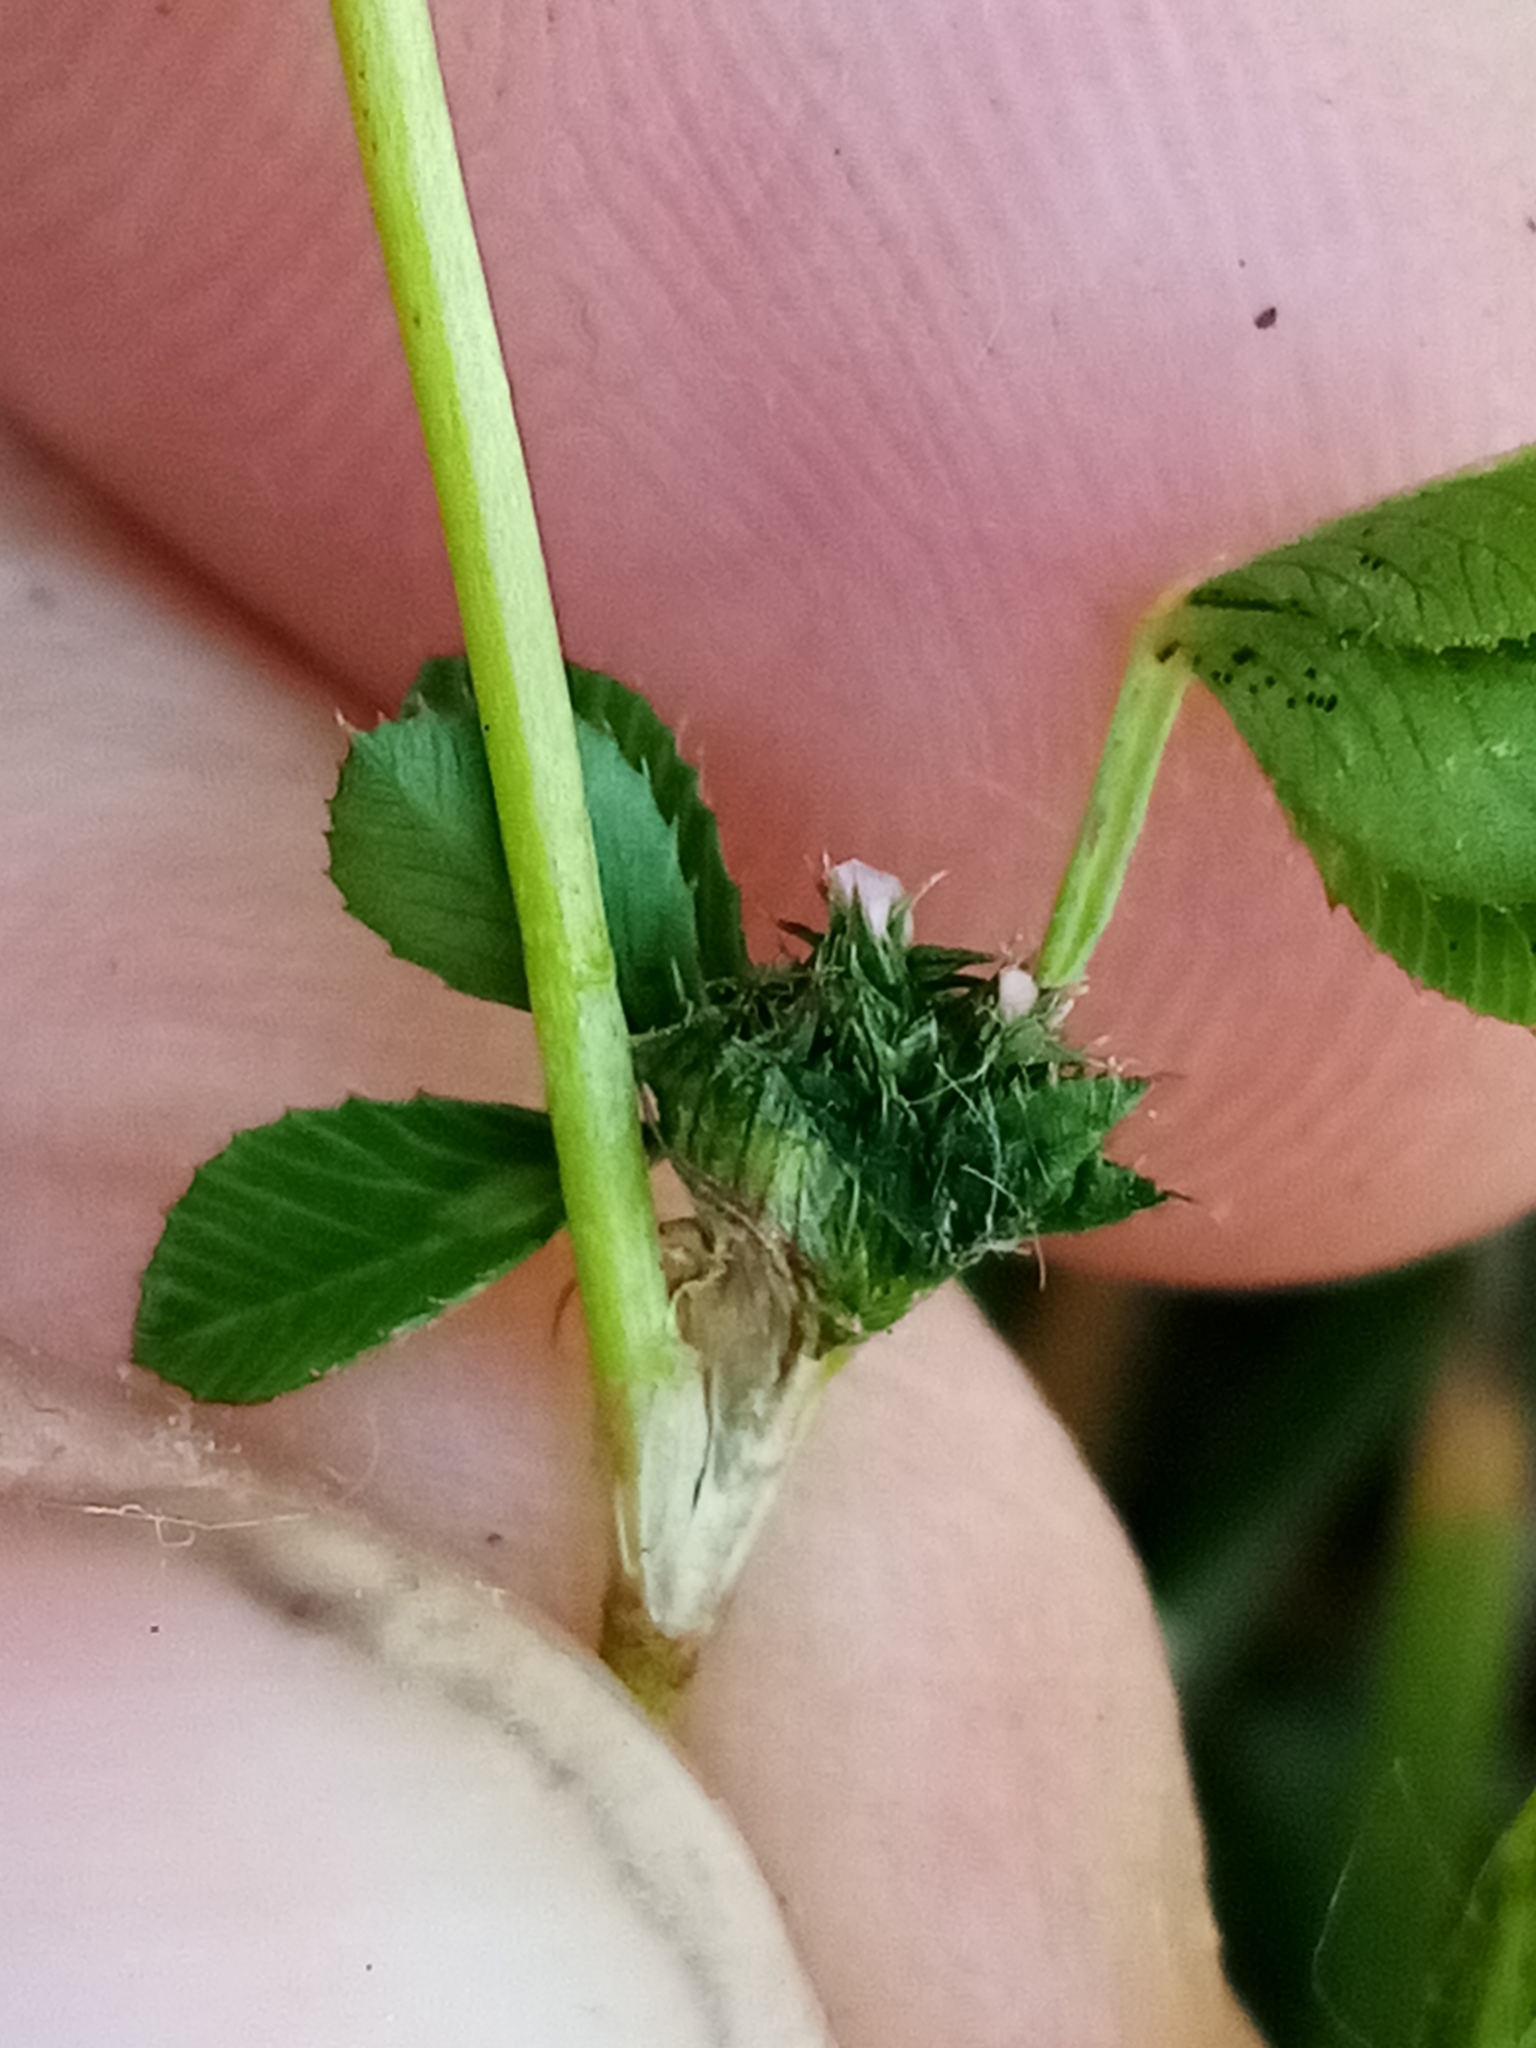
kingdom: Plantae
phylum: Tracheophyta
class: Magnoliopsida
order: Fabales
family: Fabaceae
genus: Trifolium
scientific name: Trifolium glomeratum
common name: Clustered clover
